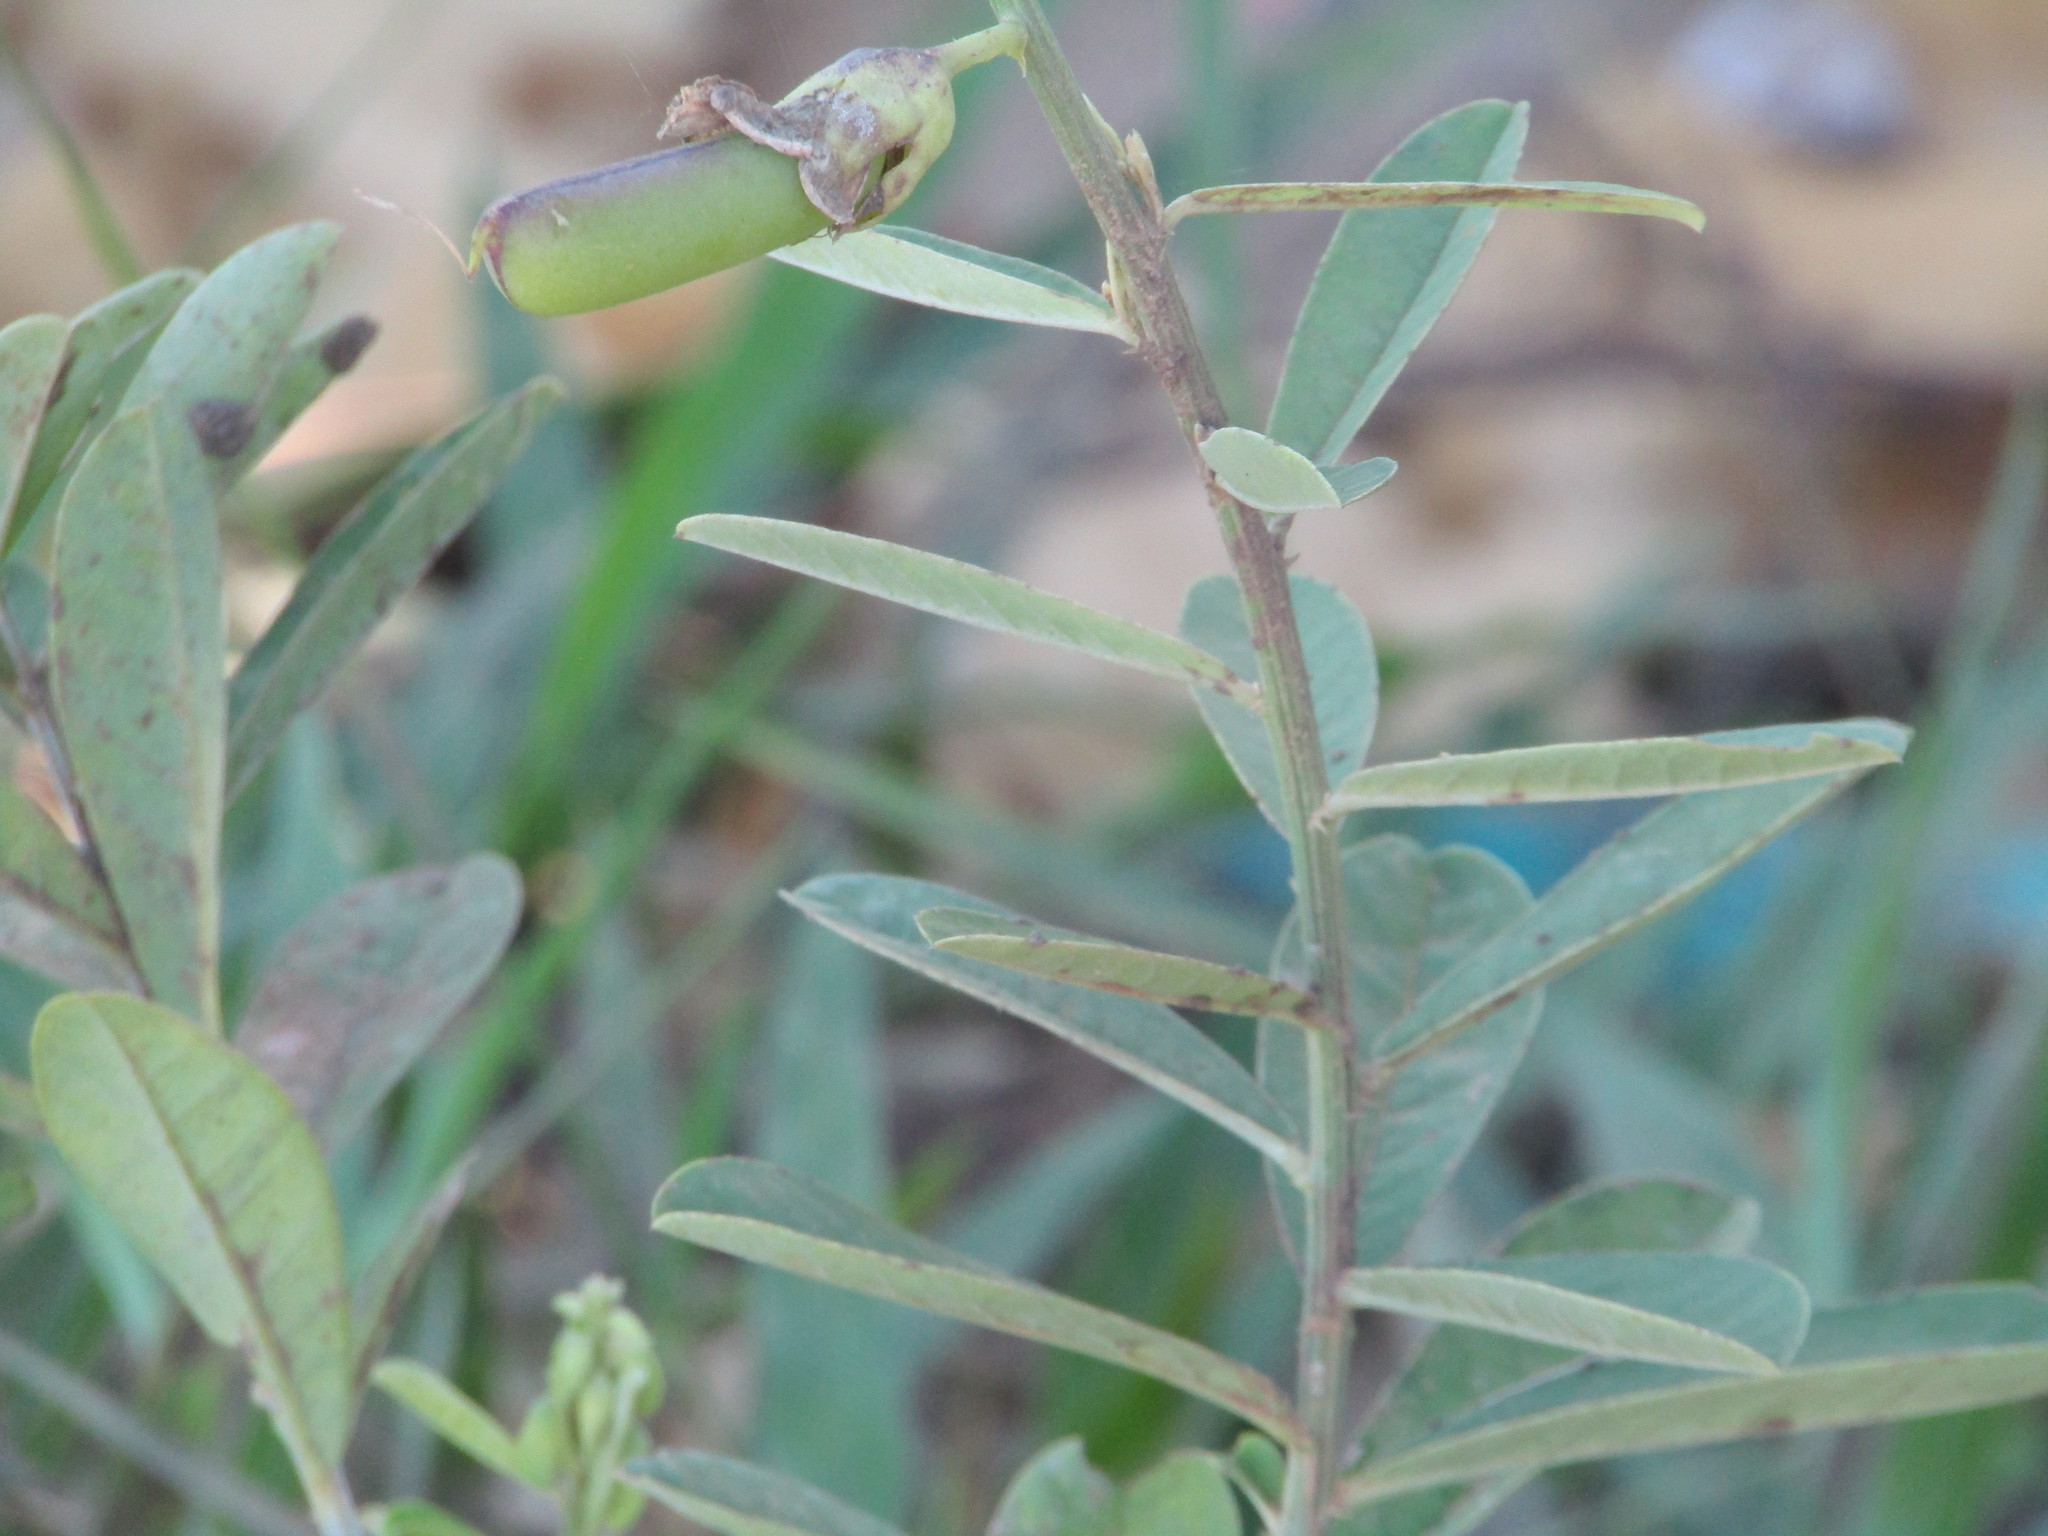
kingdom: Plantae
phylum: Tracheophyta
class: Magnoliopsida
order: Fabales
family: Fabaceae
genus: Crotalaria
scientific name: Crotalaria retusa
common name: Rattleweed
